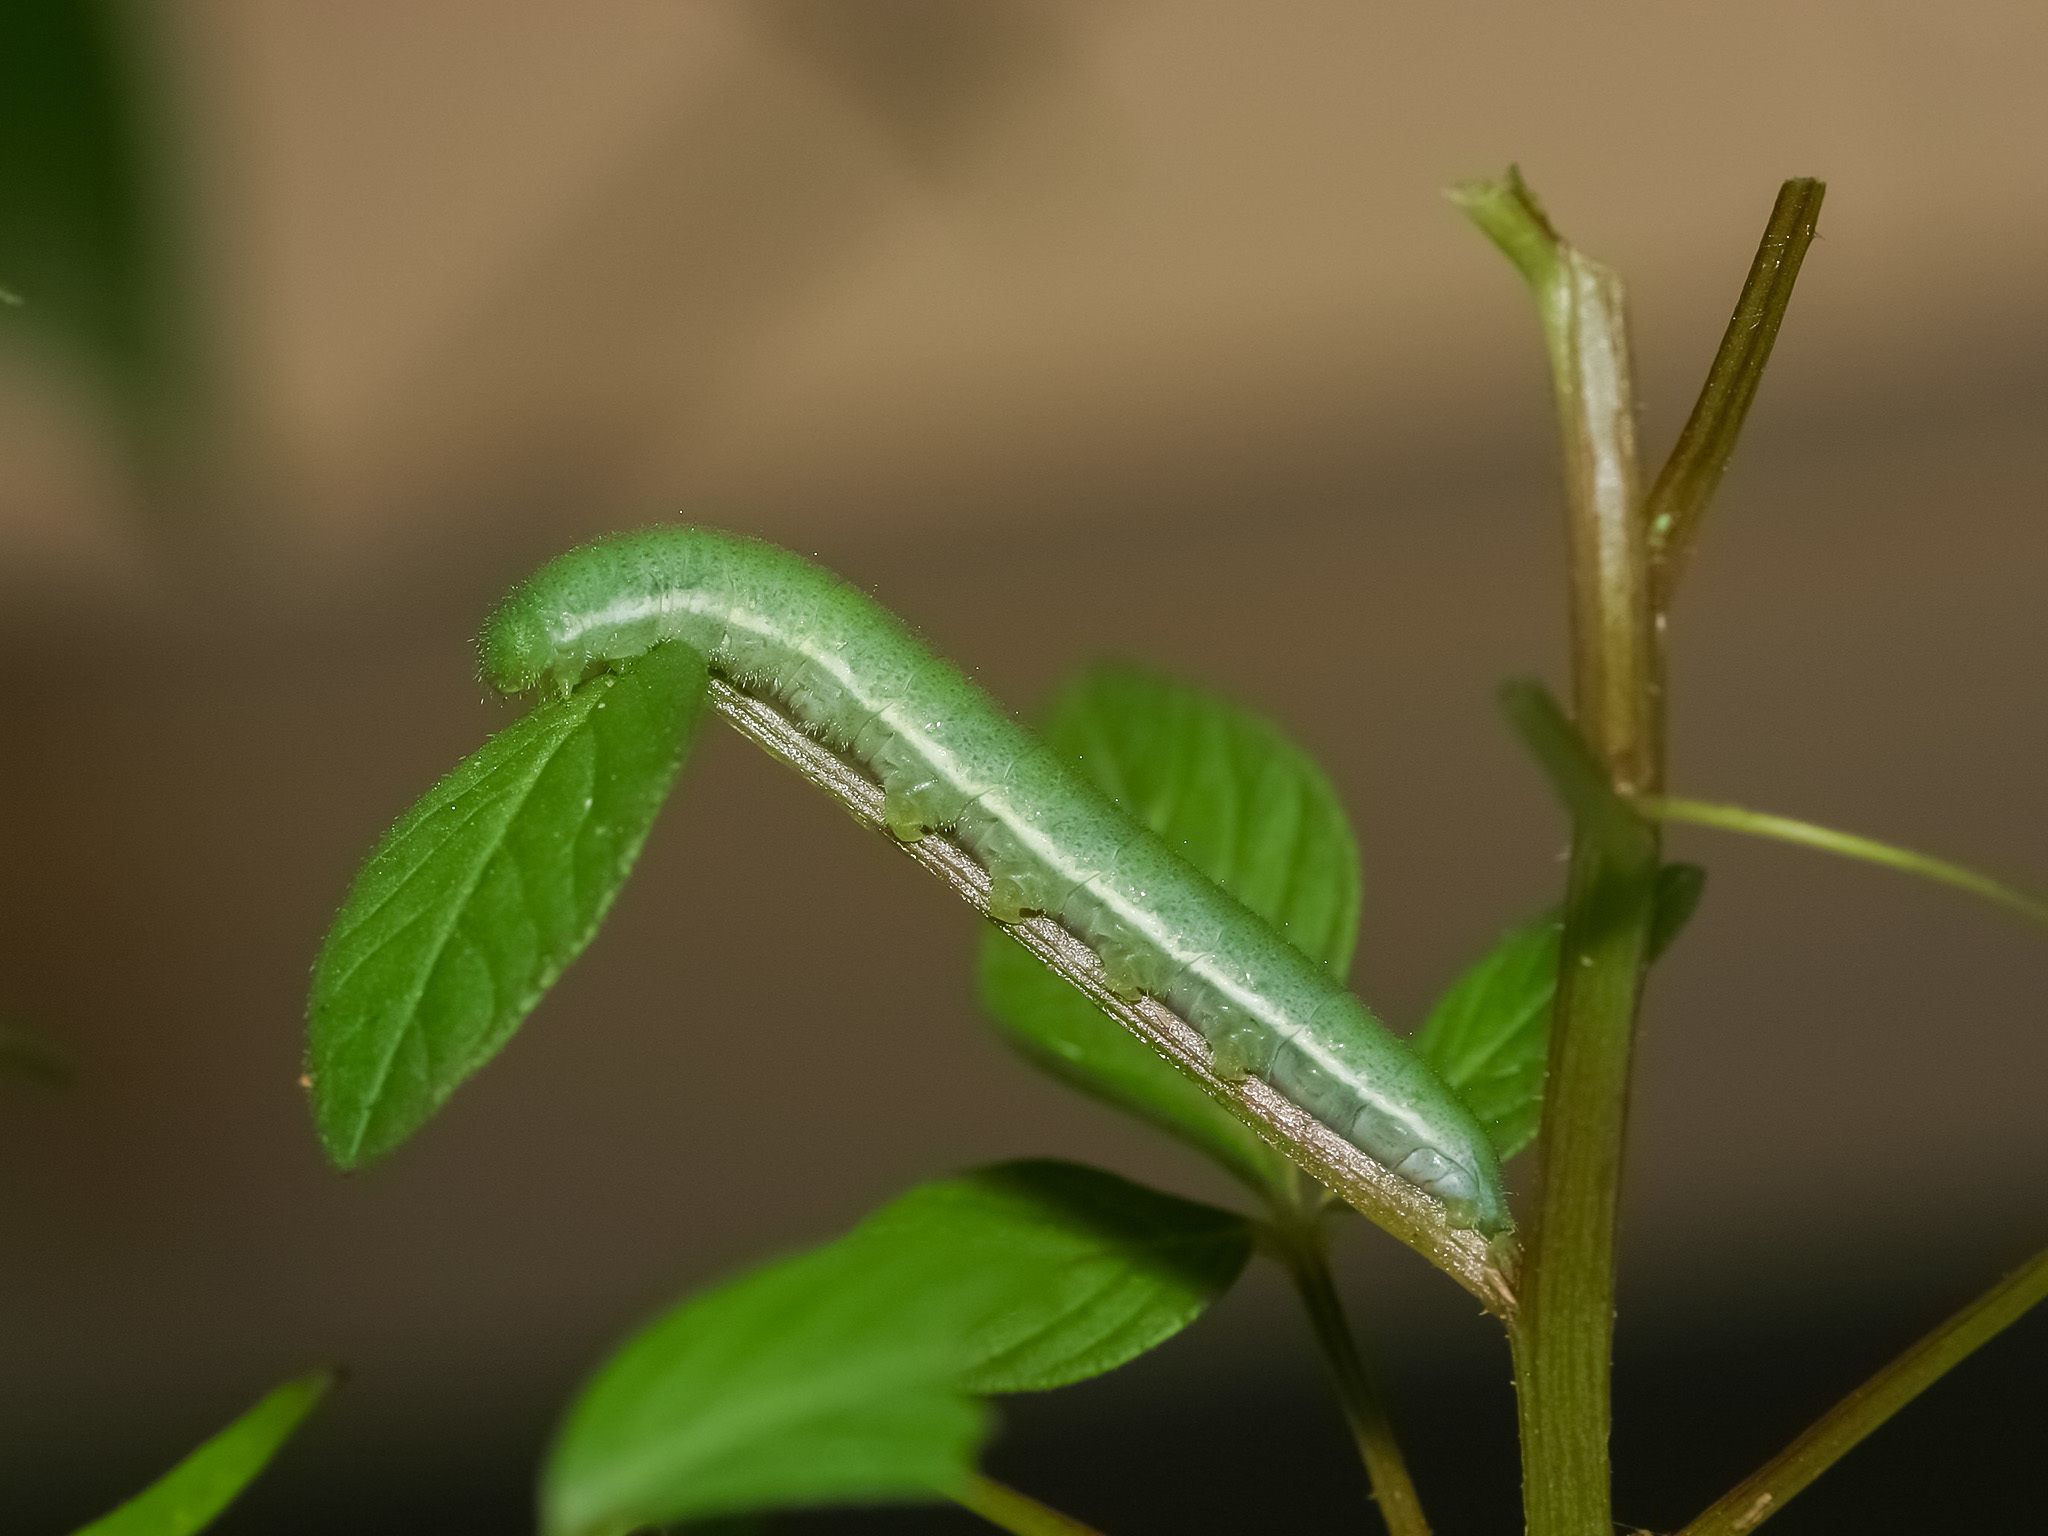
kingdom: Animalia
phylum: Arthropoda
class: Insecta
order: Lepidoptera
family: Pieridae
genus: Appias
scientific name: Appias libythea
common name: Striped albatross
